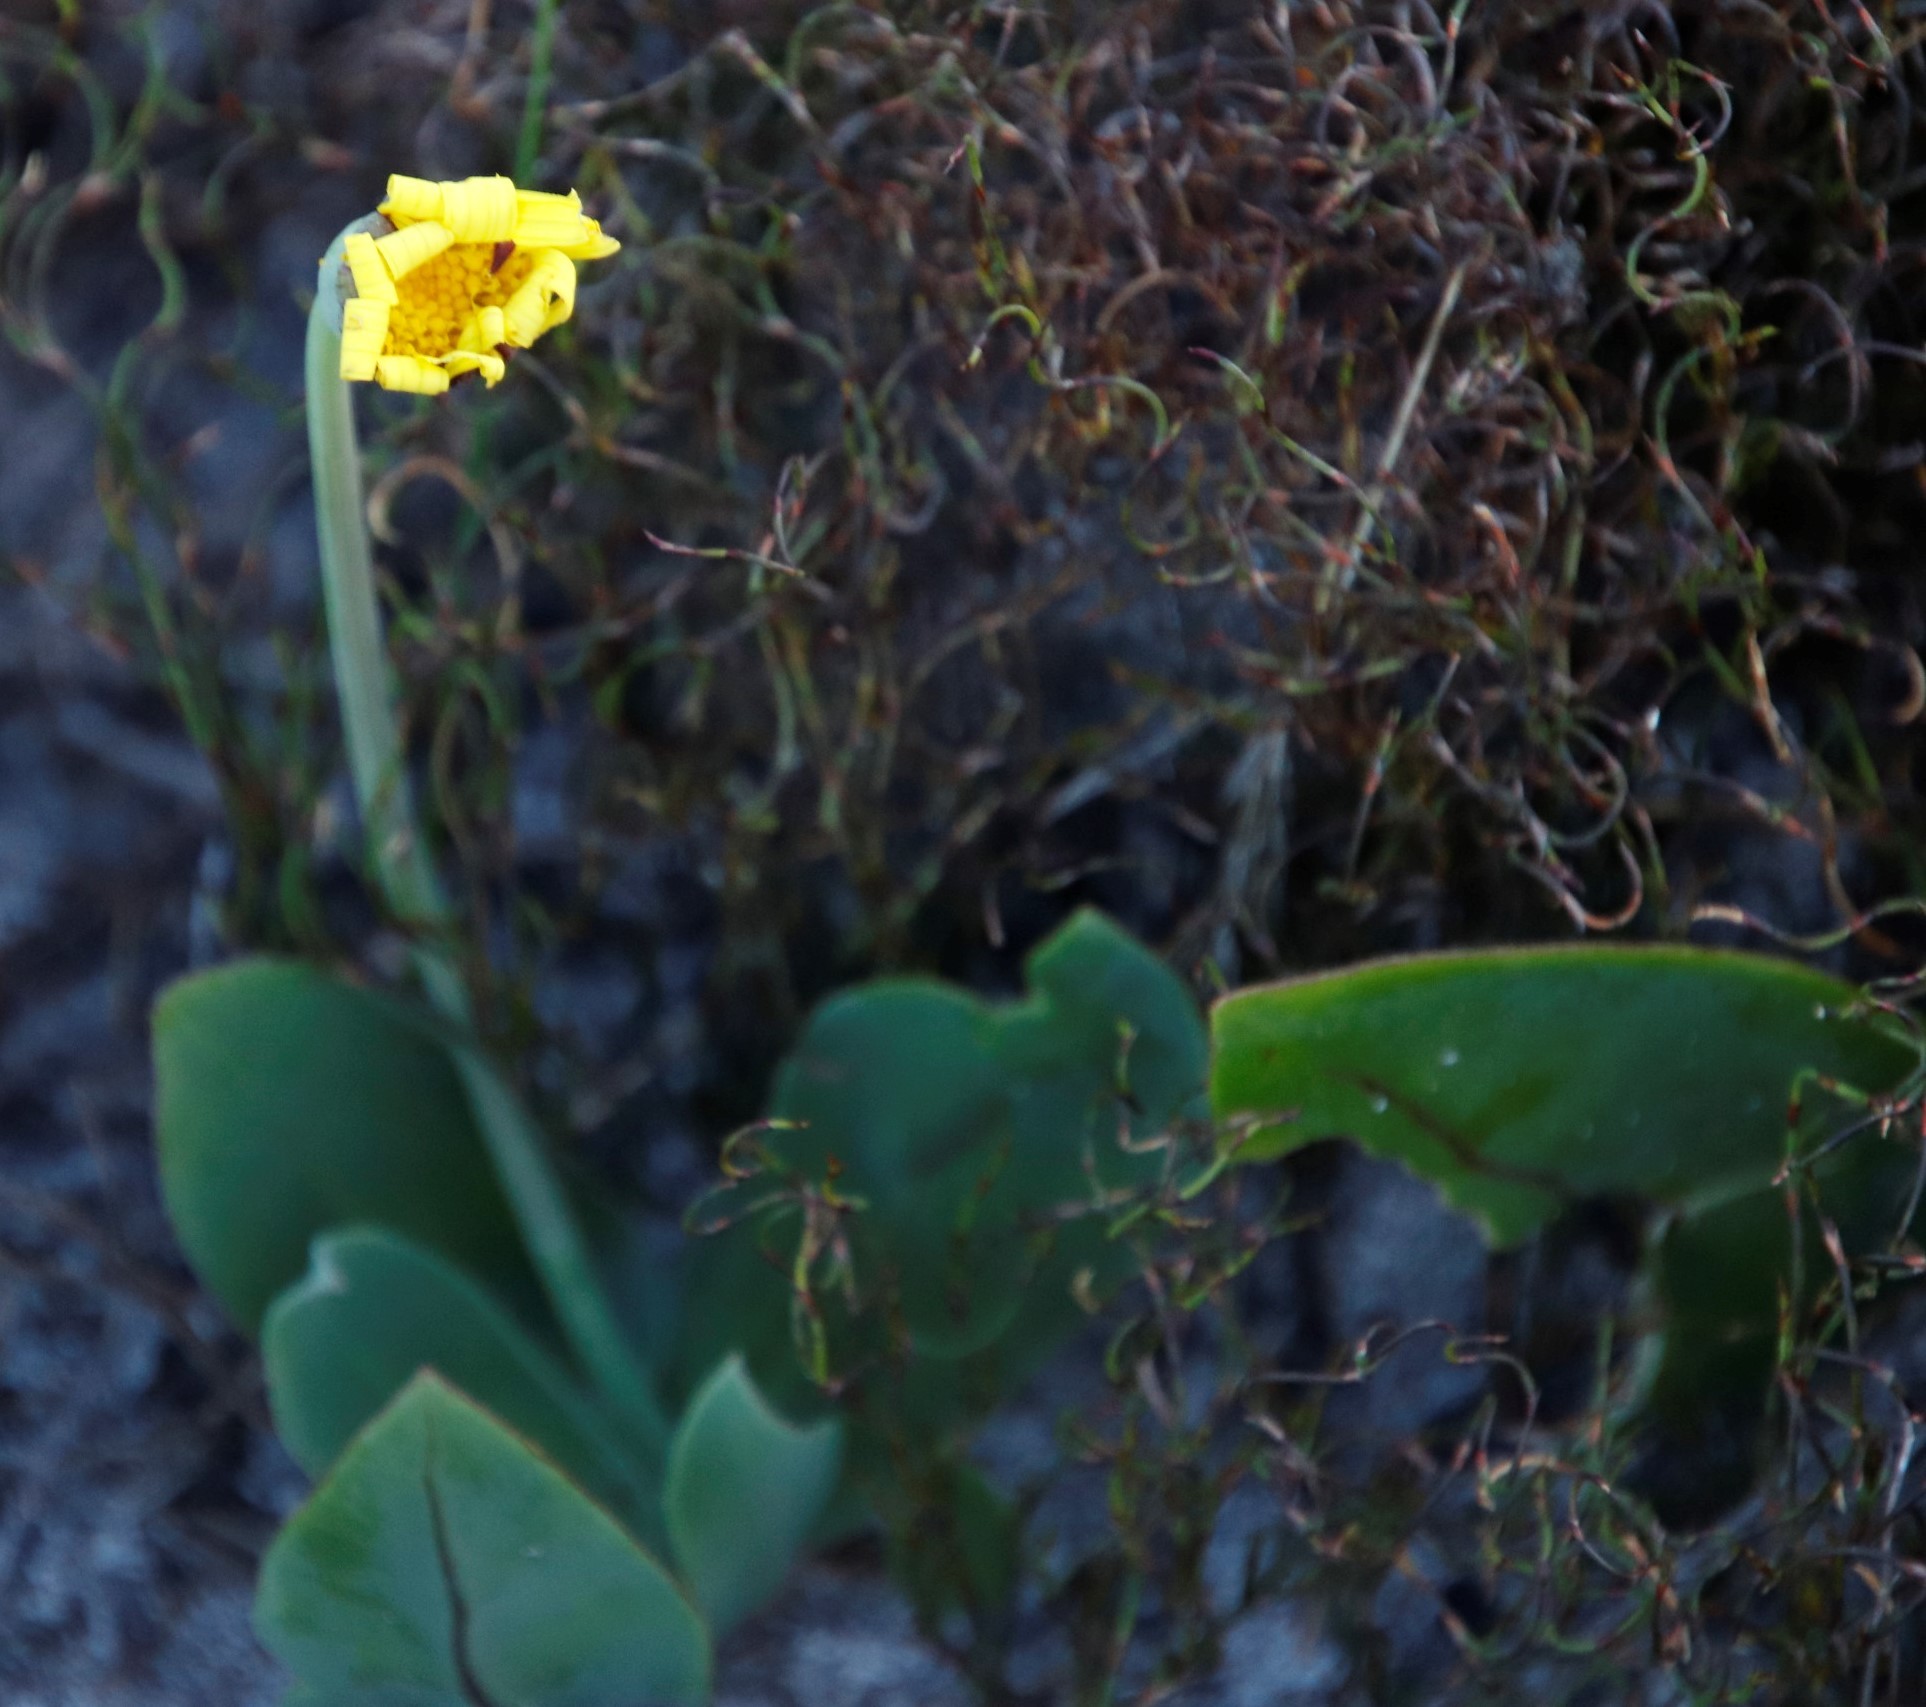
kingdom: Plantae
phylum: Tracheophyta
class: Magnoliopsida
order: Asterales
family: Asteraceae
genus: Othonna
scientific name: Othonna bulbosa
